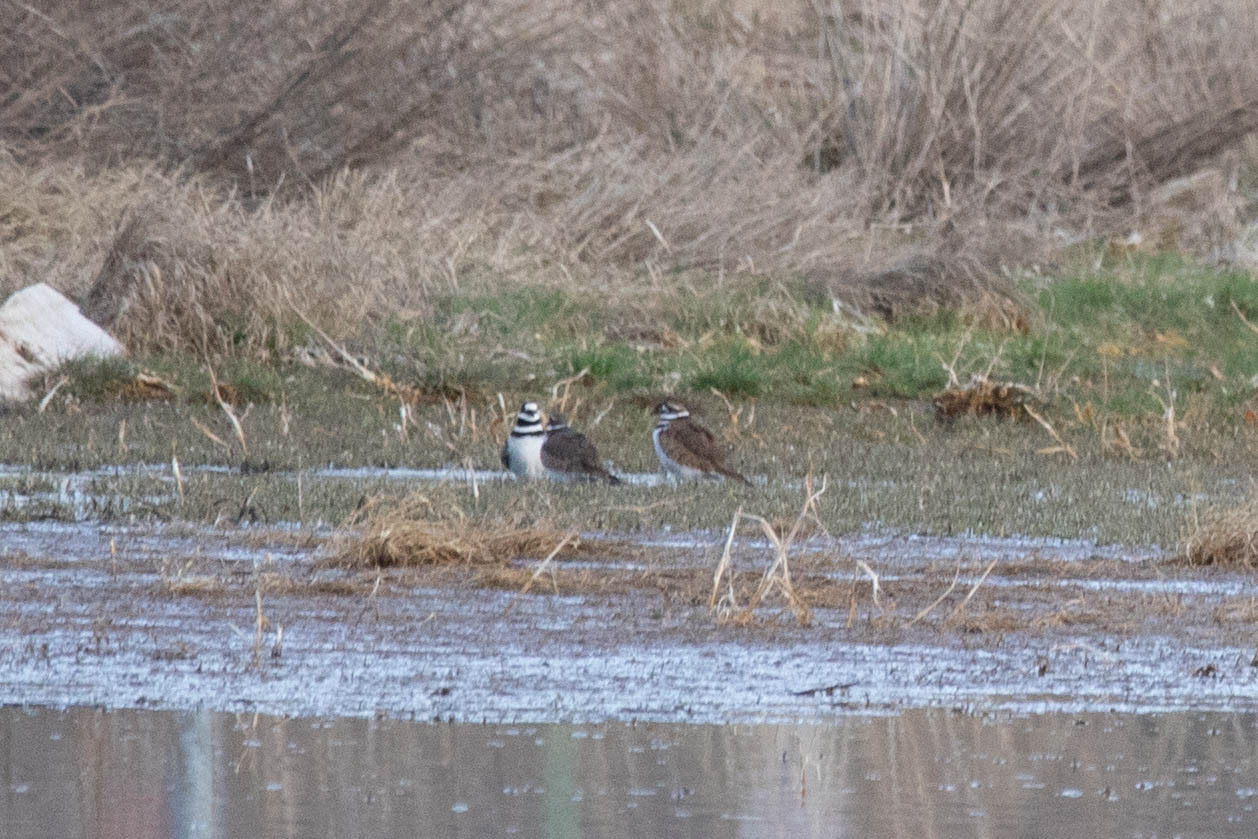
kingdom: Animalia
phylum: Chordata
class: Aves
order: Charadriiformes
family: Charadriidae
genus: Charadrius
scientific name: Charadrius vociferus
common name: Killdeer
